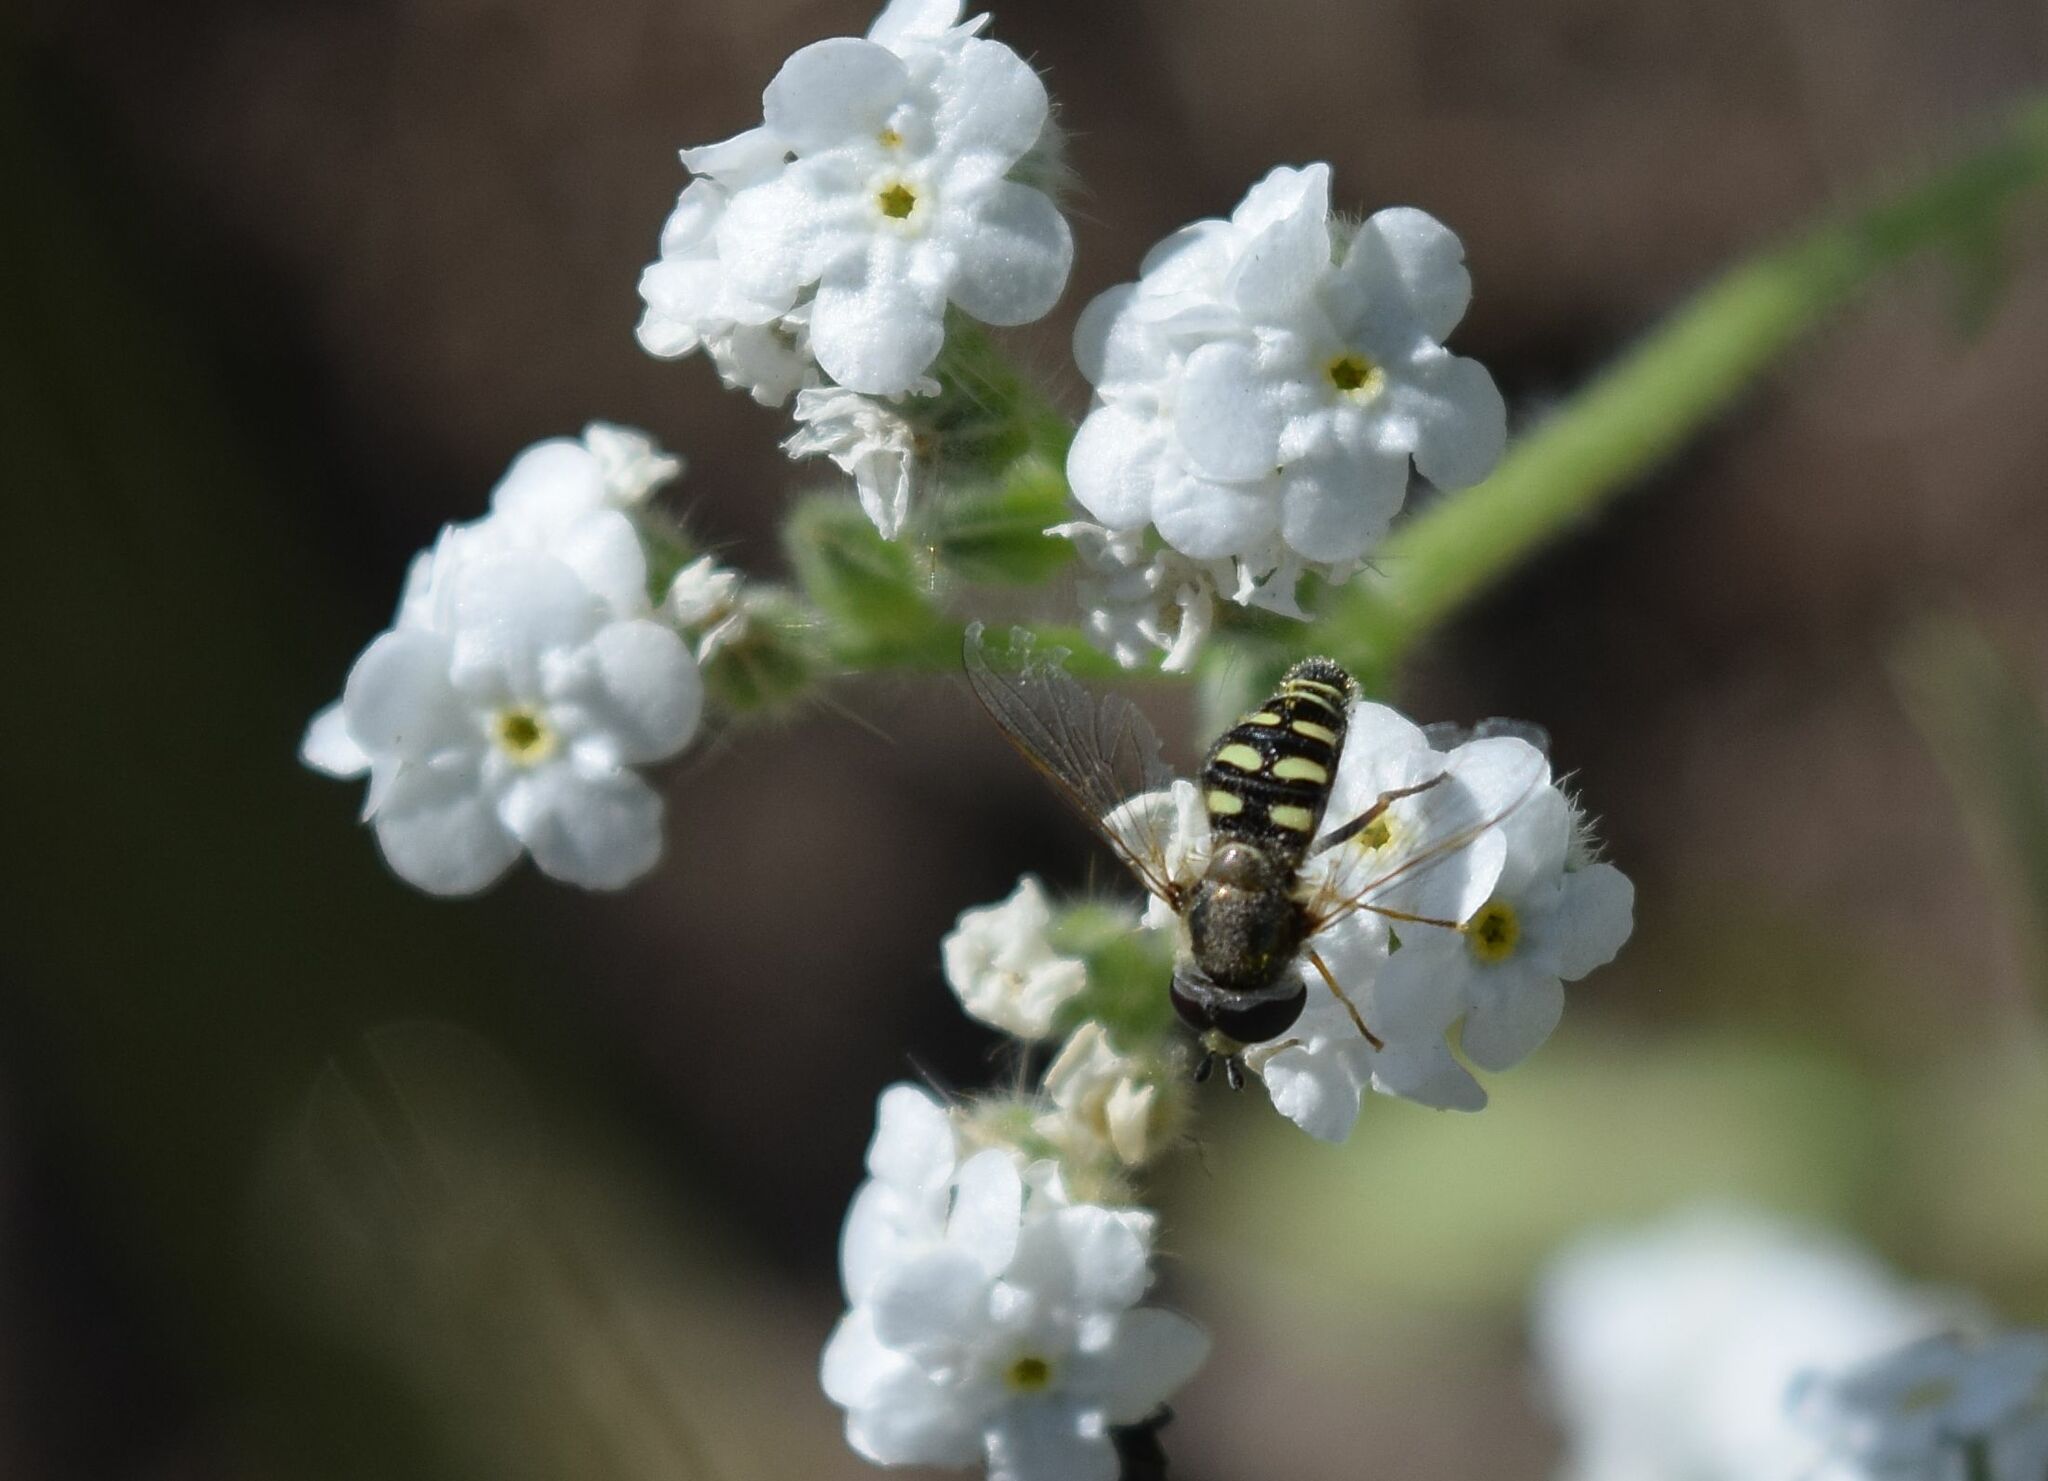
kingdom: Animalia
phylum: Arthropoda
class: Insecta
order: Diptera
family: Syrphidae
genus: Eupeodes
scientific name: Eupeodes volucris
